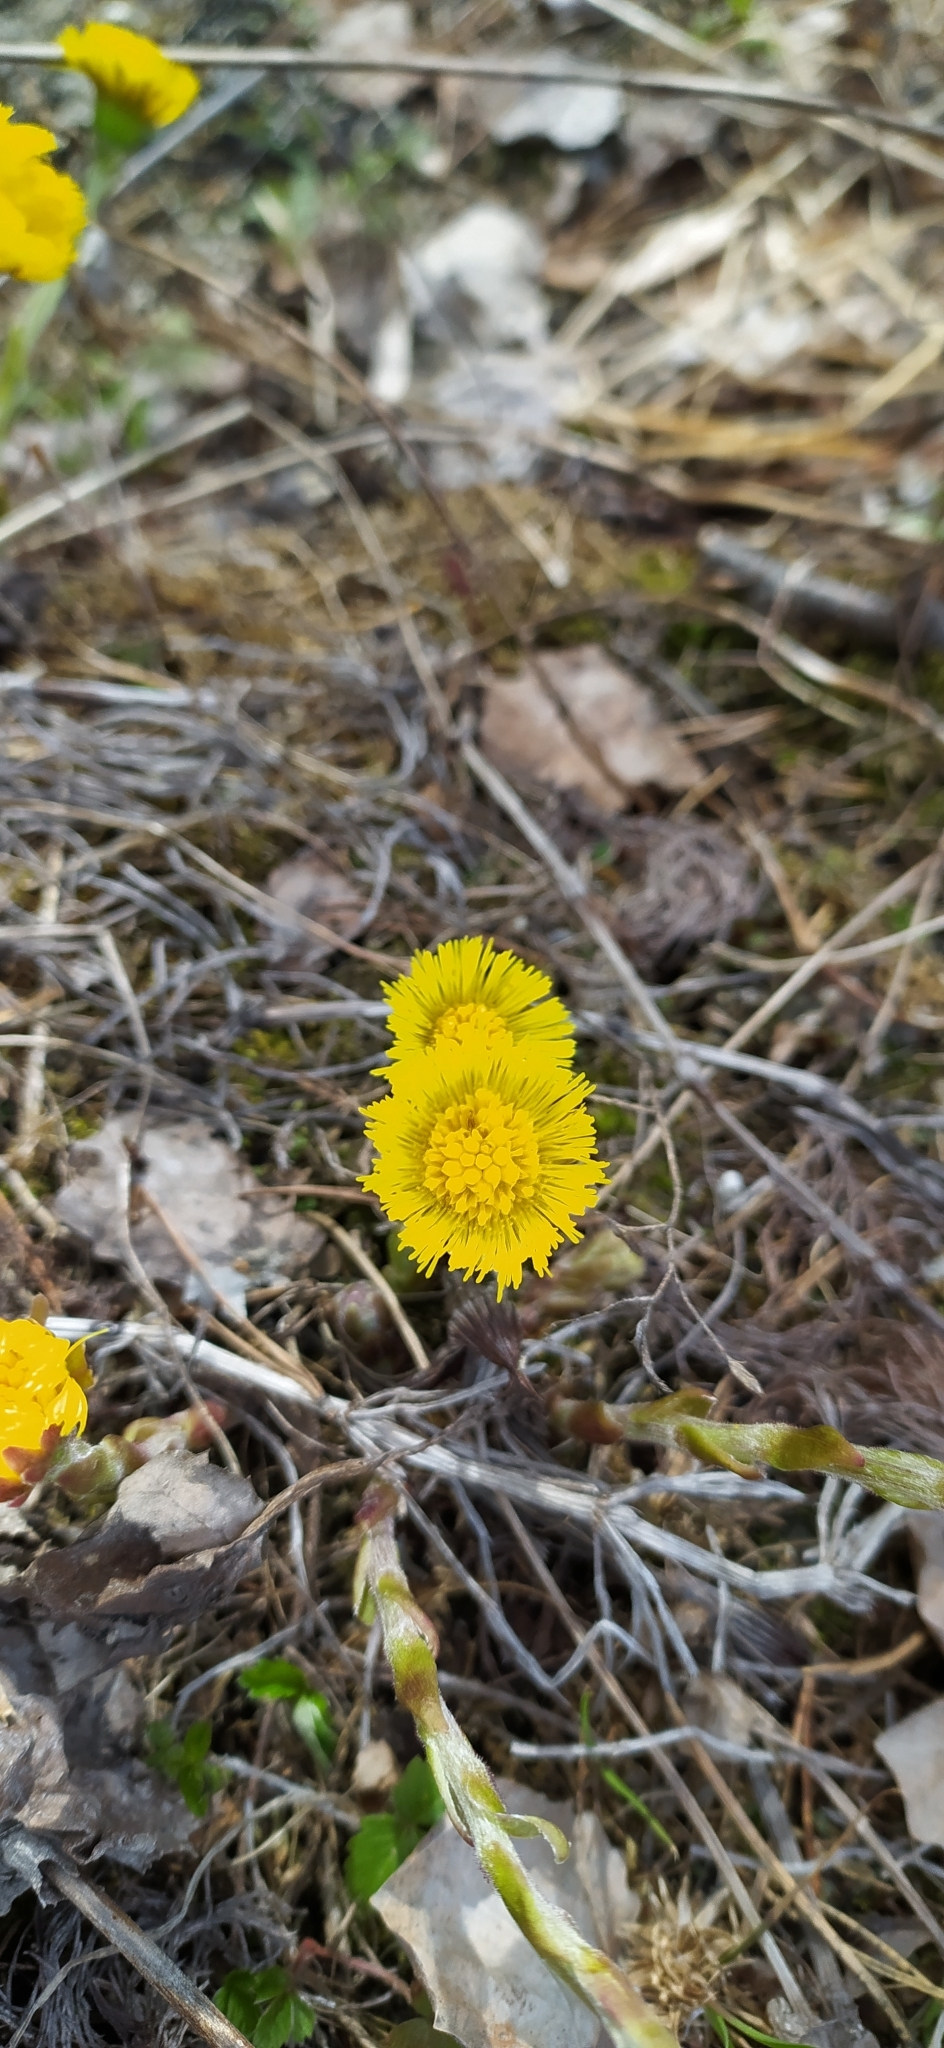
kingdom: Plantae
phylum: Tracheophyta
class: Magnoliopsida
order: Asterales
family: Asteraceae
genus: Tussilago
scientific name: Tussilago farfara
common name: Coltsfoot
